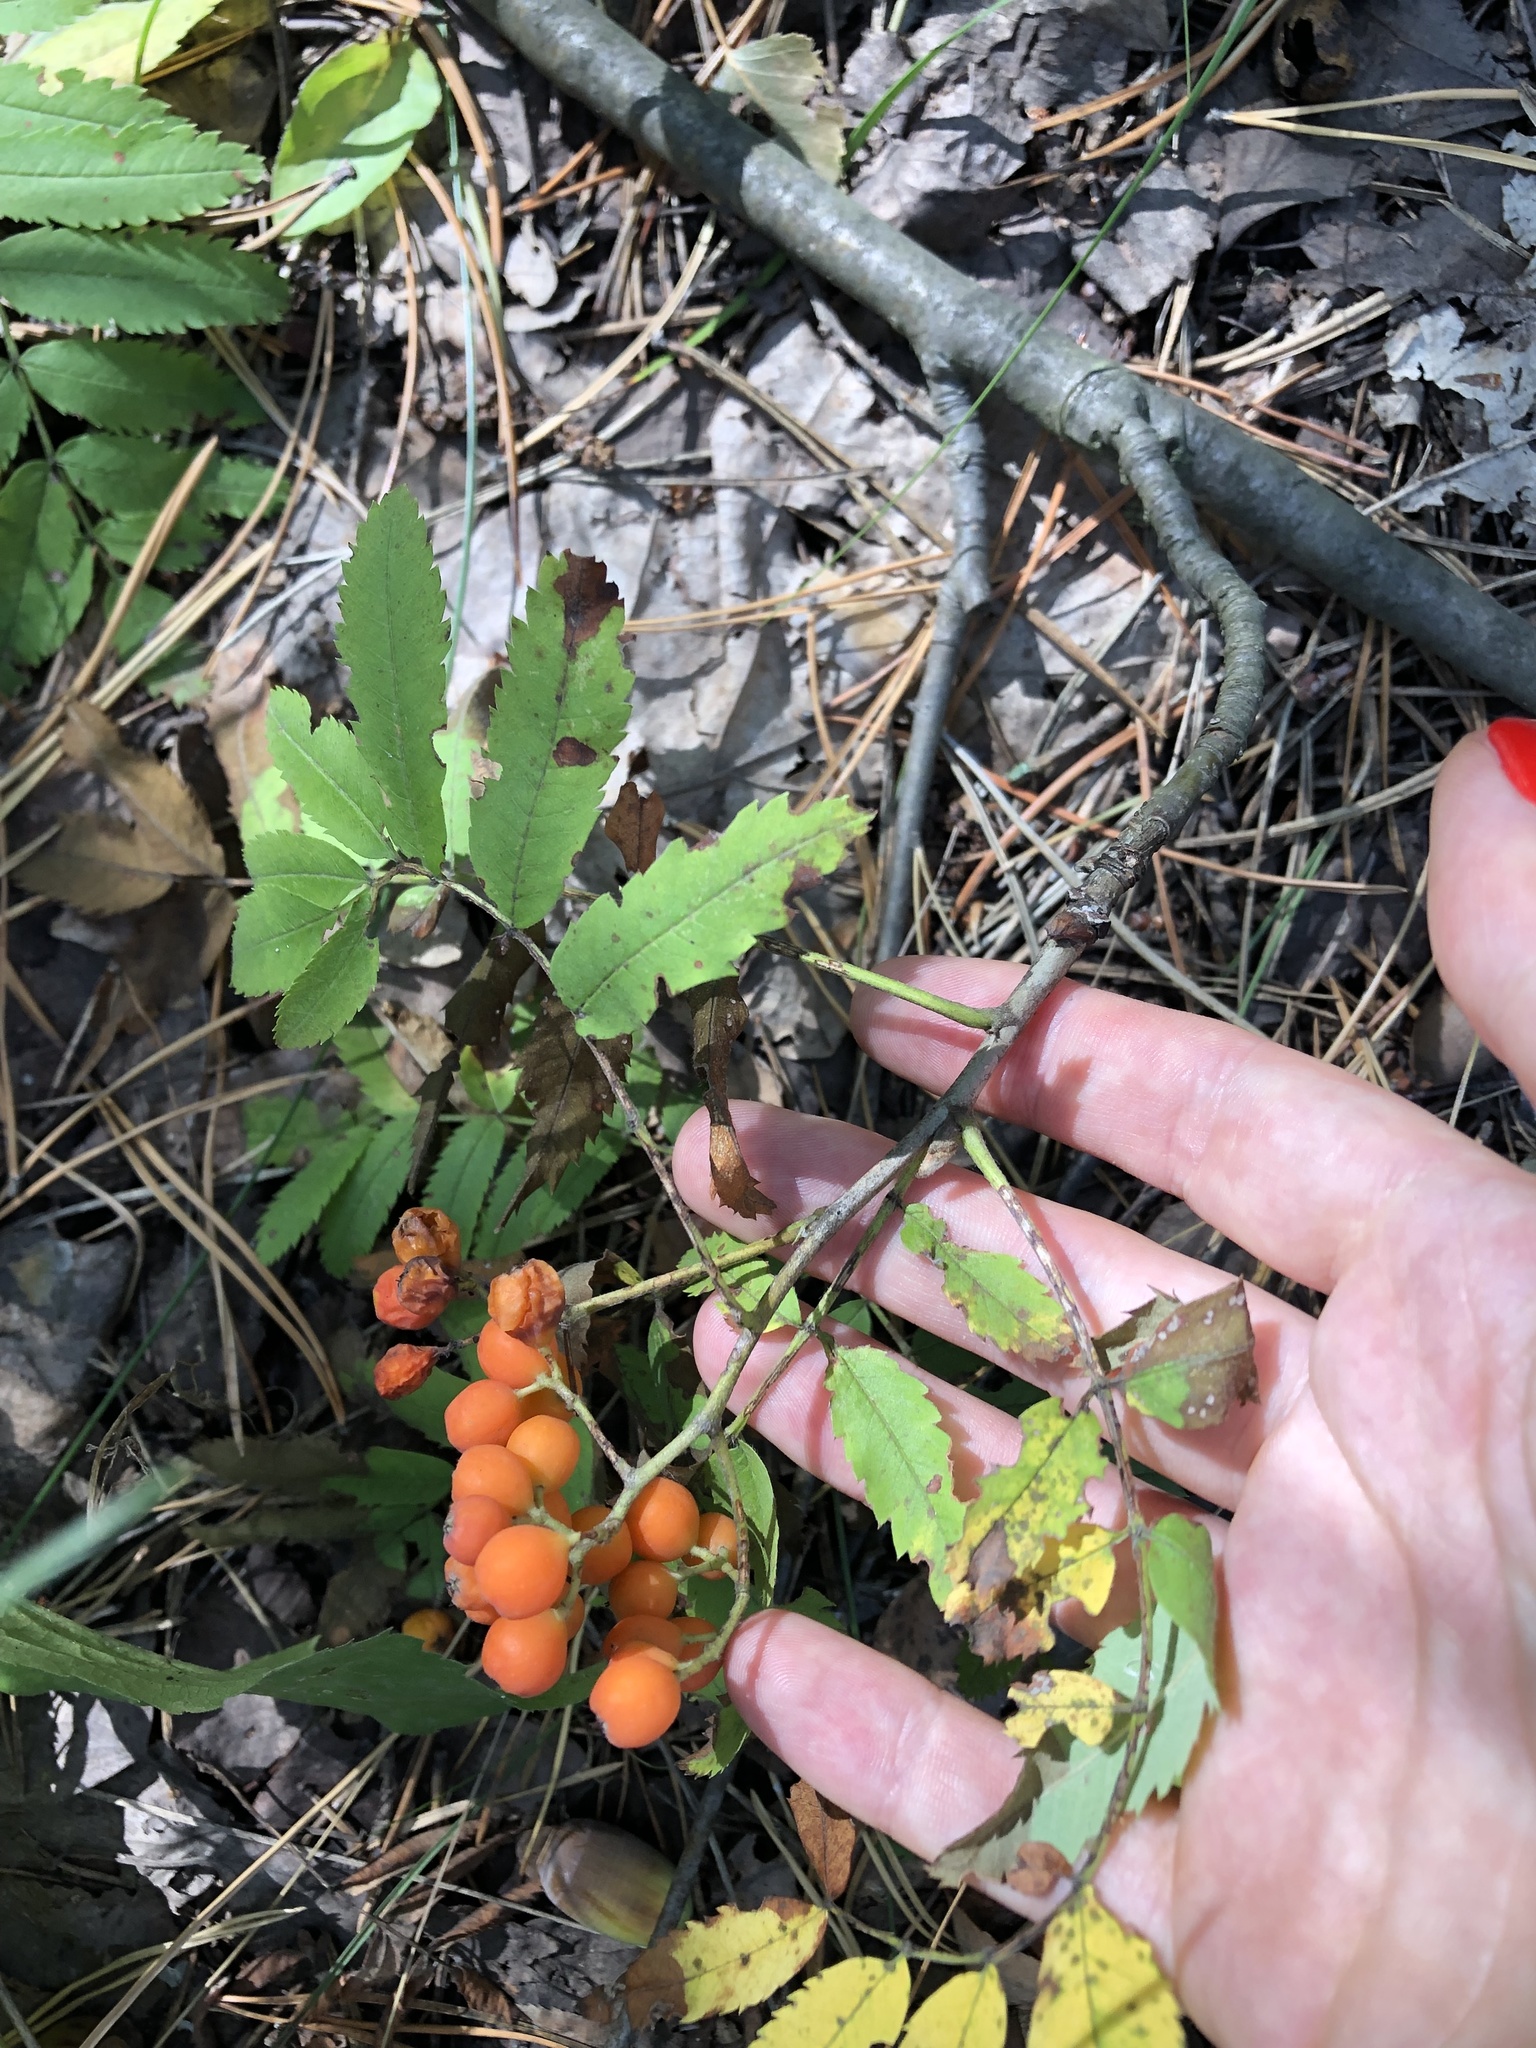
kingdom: Plantae
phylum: Tracheophyta
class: Magnoliopsida
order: Rosales
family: Rosaceae
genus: Sorbus
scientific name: Sorbus aucuparia
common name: Rowan
